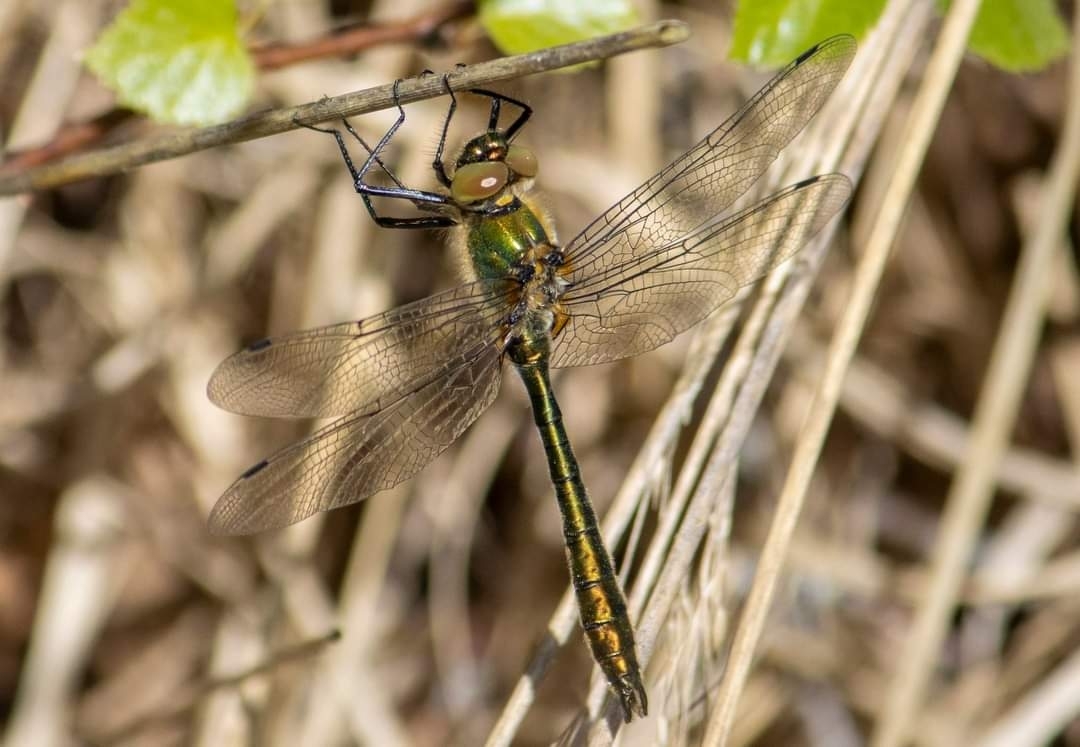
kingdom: Animalia
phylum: Arthropoda
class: Insecta
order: Odonata
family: Corduliidae
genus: Cordulia
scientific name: Cordulia aenea
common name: Downy emerald
